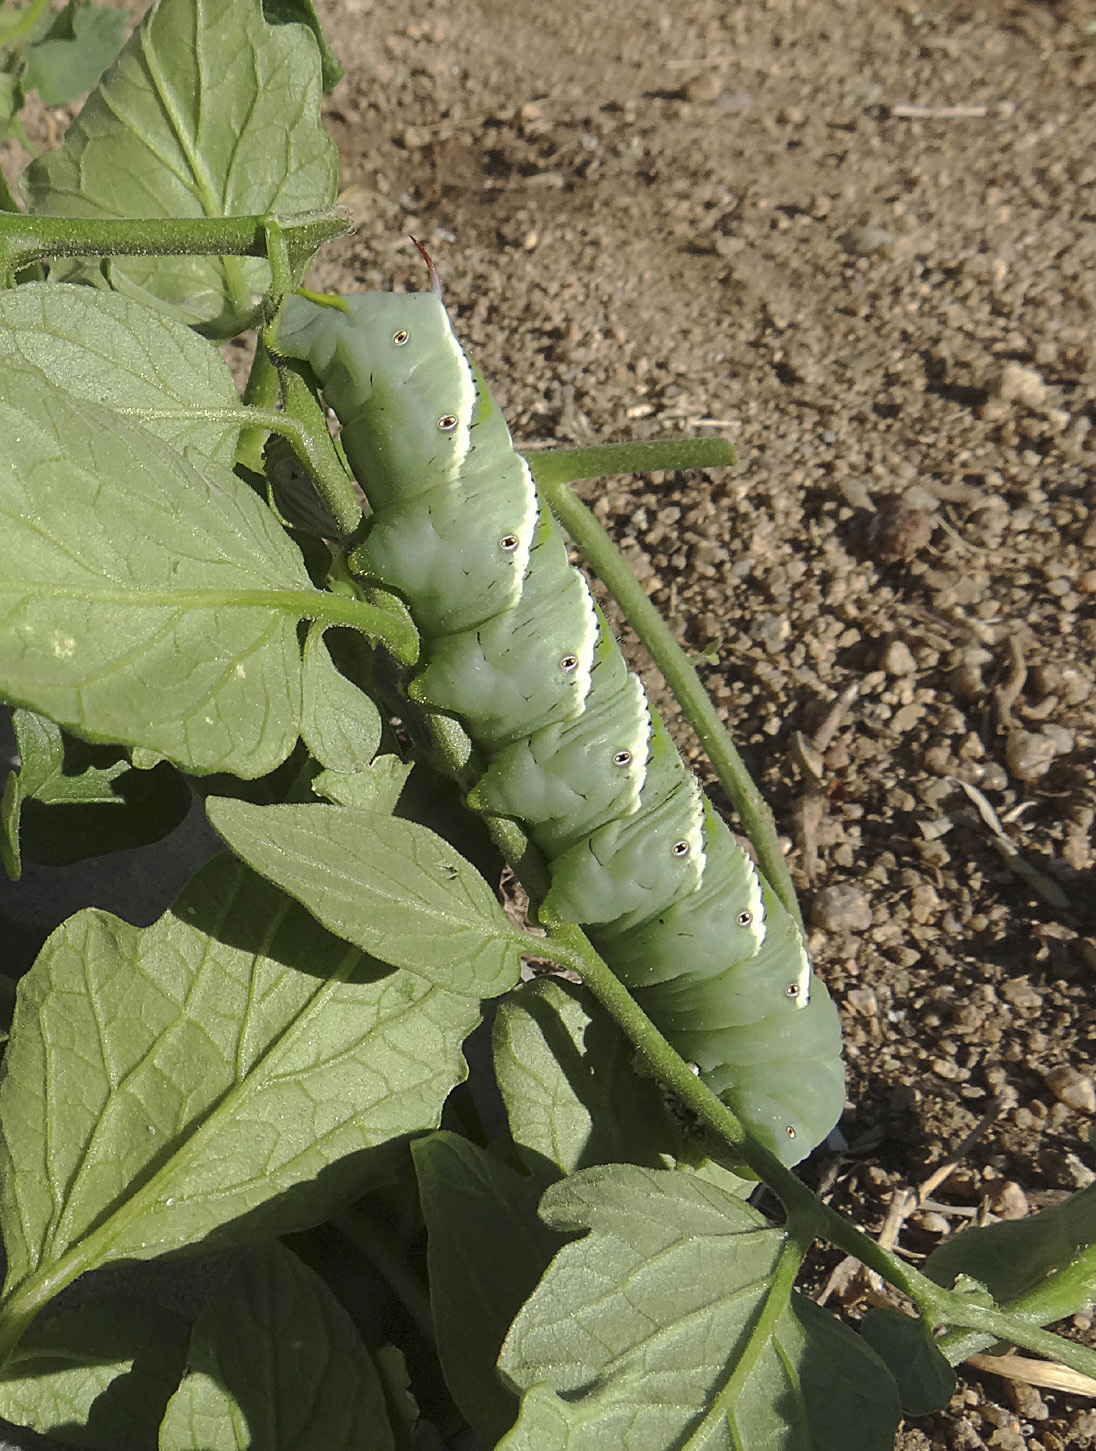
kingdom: Animalia
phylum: Arthropoda
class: Insecta
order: Lepidoptera
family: Sphingidae
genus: Manduca
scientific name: Manduca sexta
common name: Carolina sphinx
